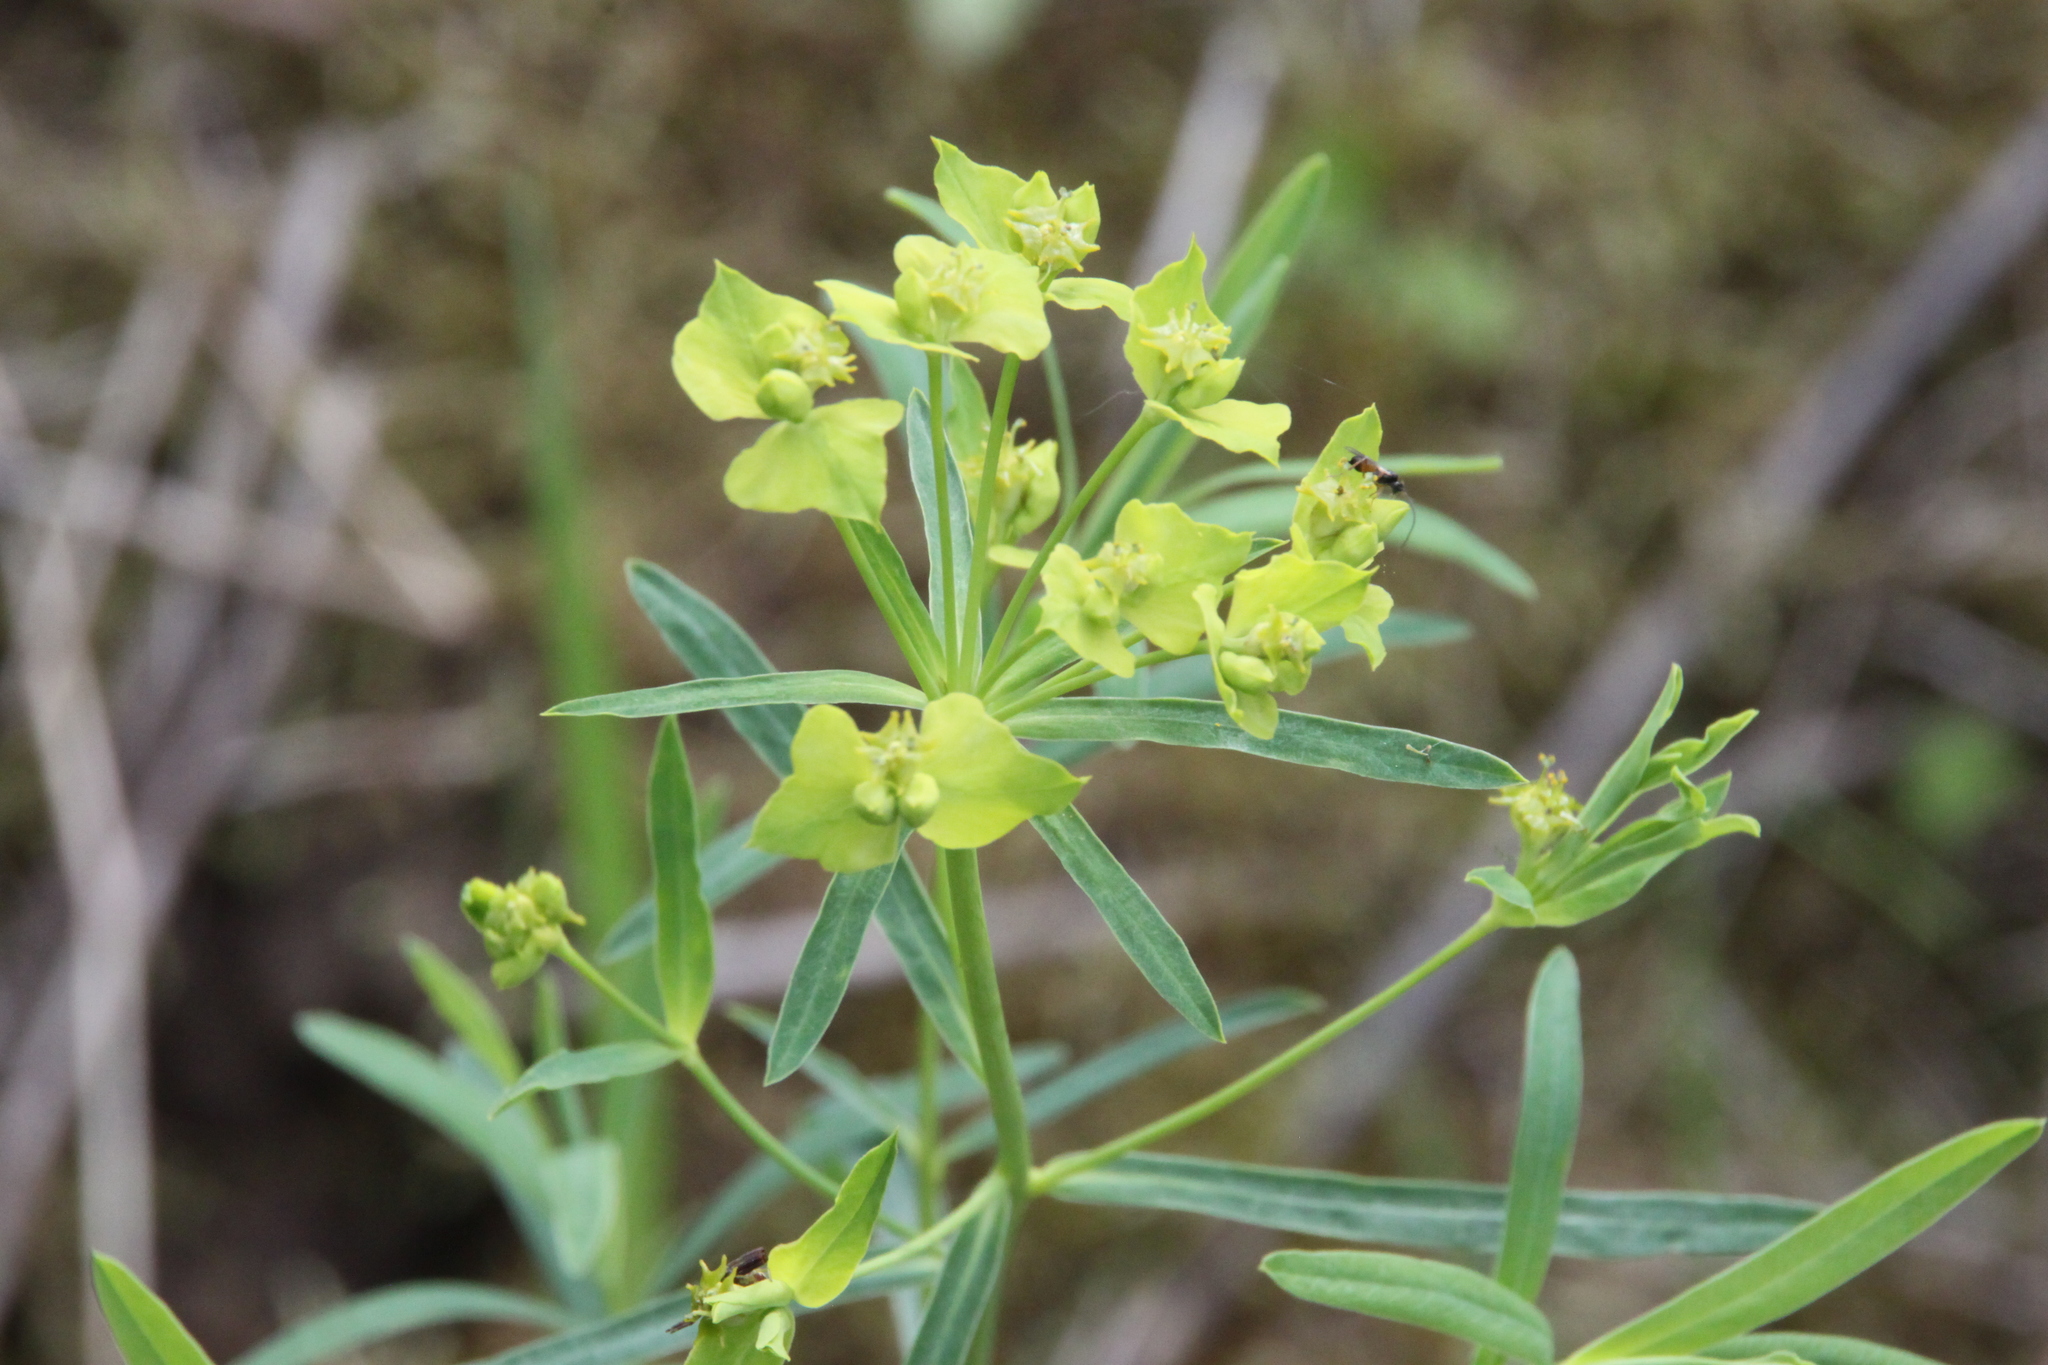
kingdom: Plantae
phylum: Tracheophyta
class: Magnoliopsida
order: Malpighiales
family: Euphorbiaceae
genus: Euphorbia
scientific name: Euphorbia virgata
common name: Leafy spurge
